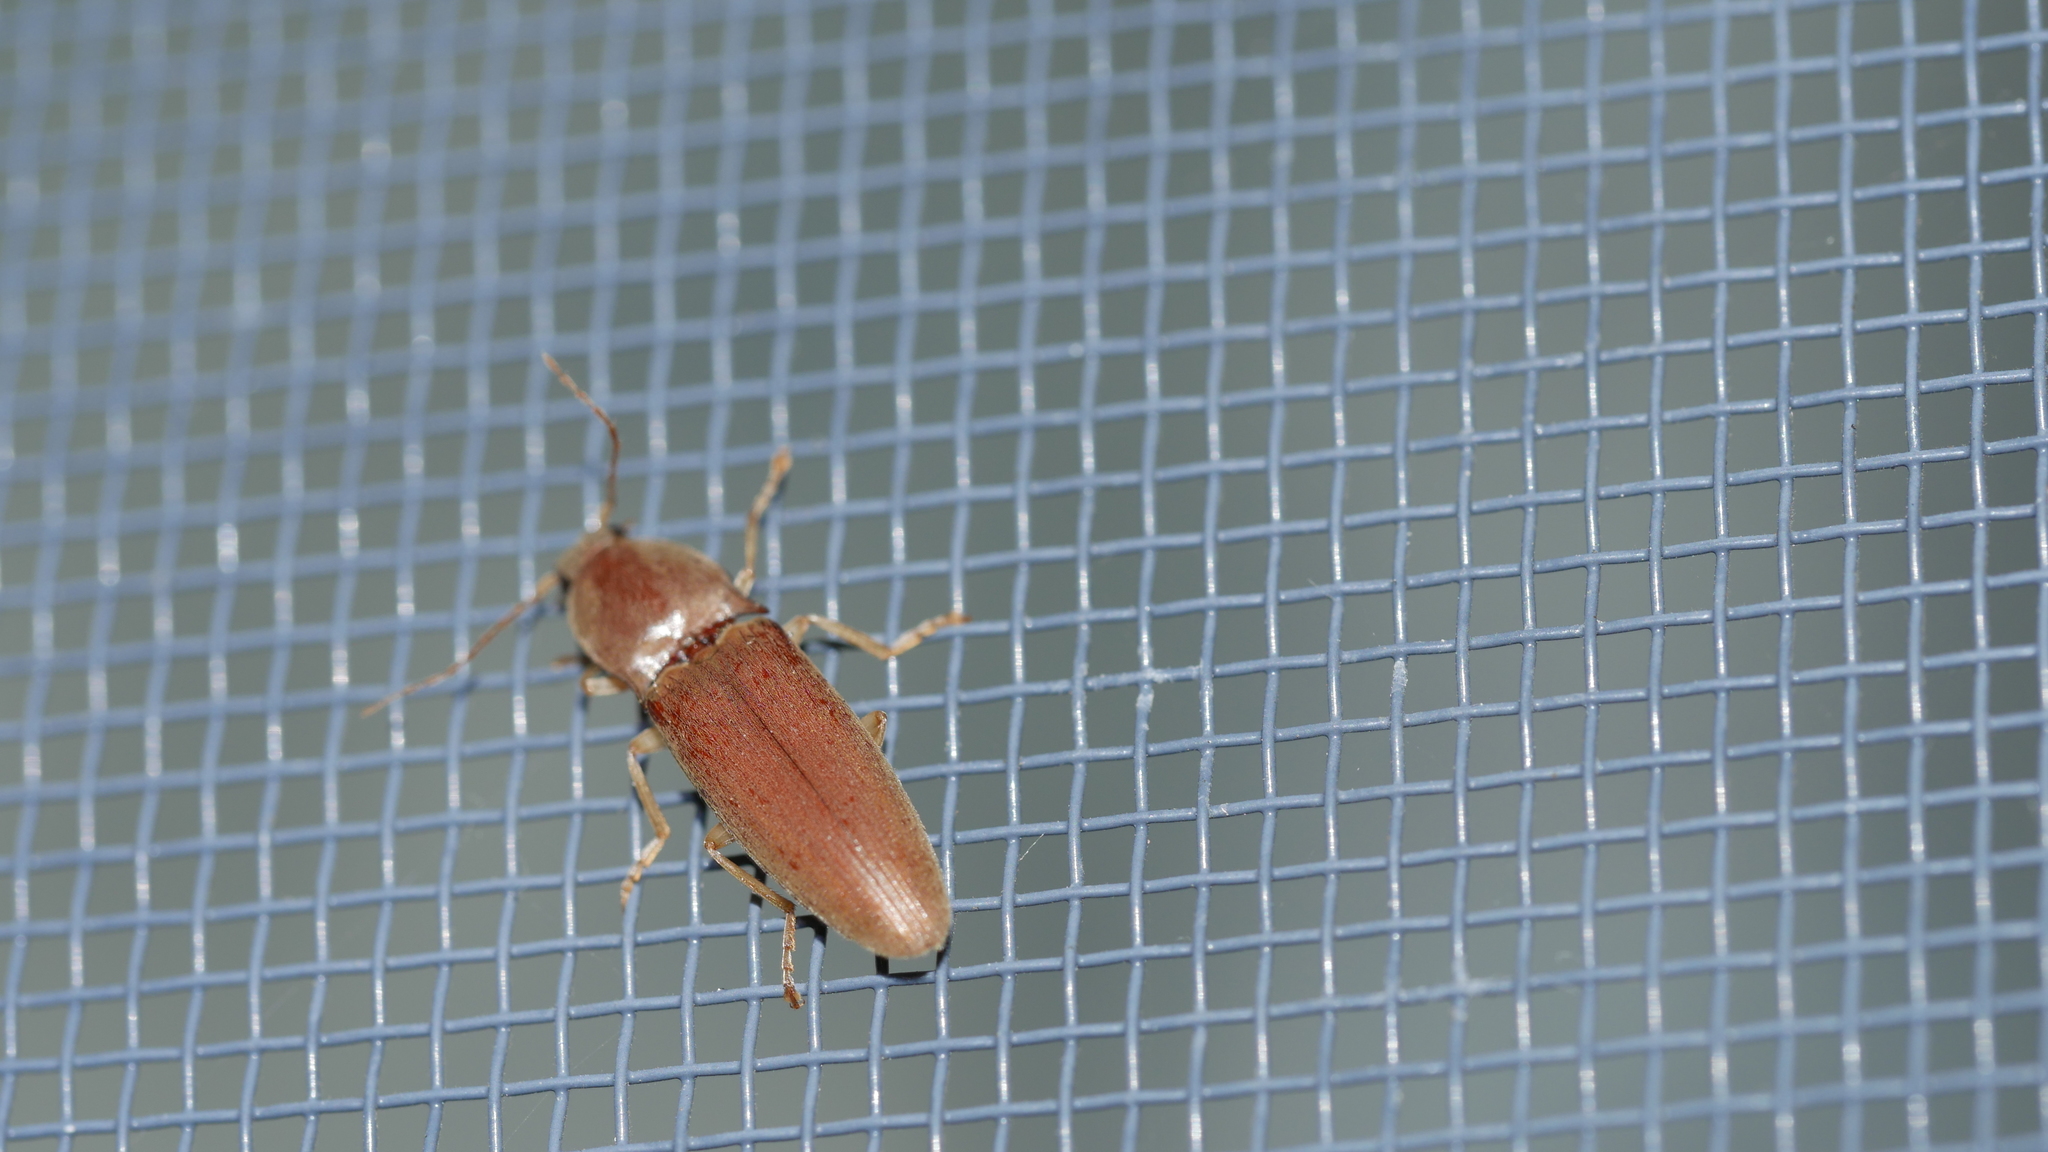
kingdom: Animalia
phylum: Arthropoda
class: Insecta
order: Coleoptera
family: Elateridae
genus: Monocrepidius
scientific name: Monocrepidius lividus
